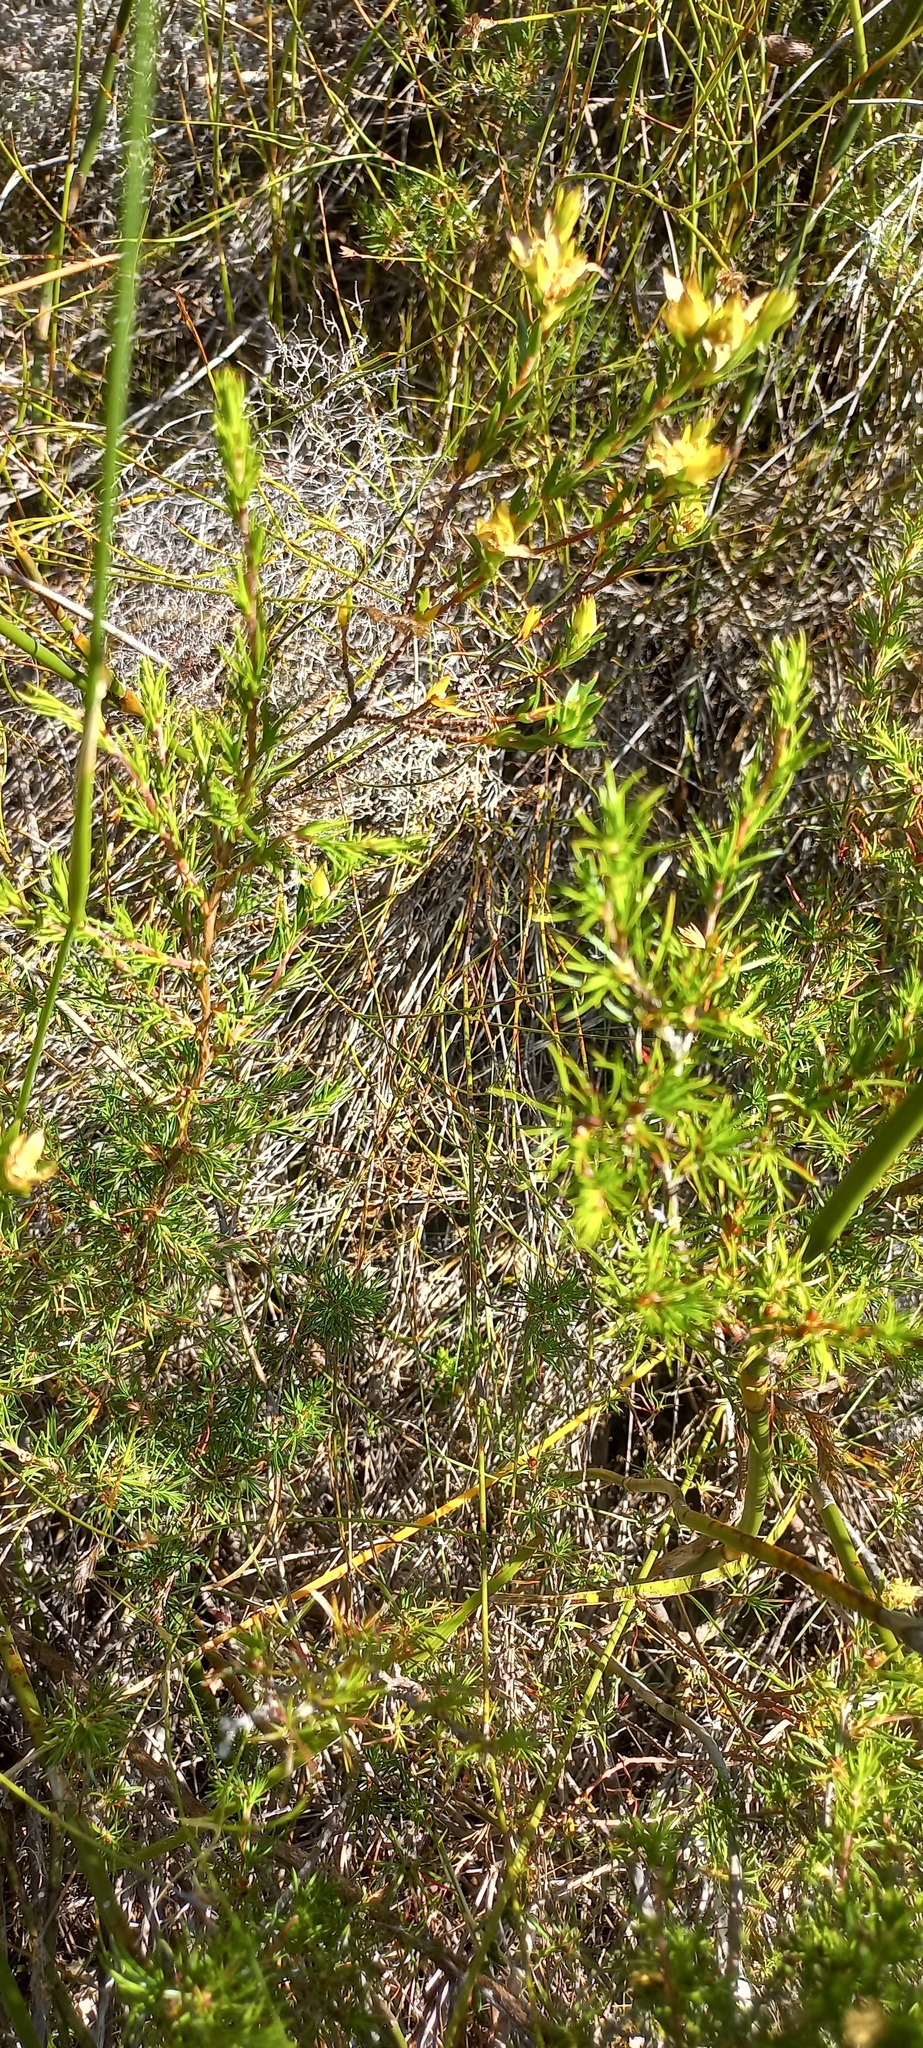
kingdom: Plantae
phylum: Tracheophyta
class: Magnoliopsida
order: Proteales
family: Proteaceae
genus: Leucadendron
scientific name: Leucadendron xanthoconus
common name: Sickle-leaf conebush
